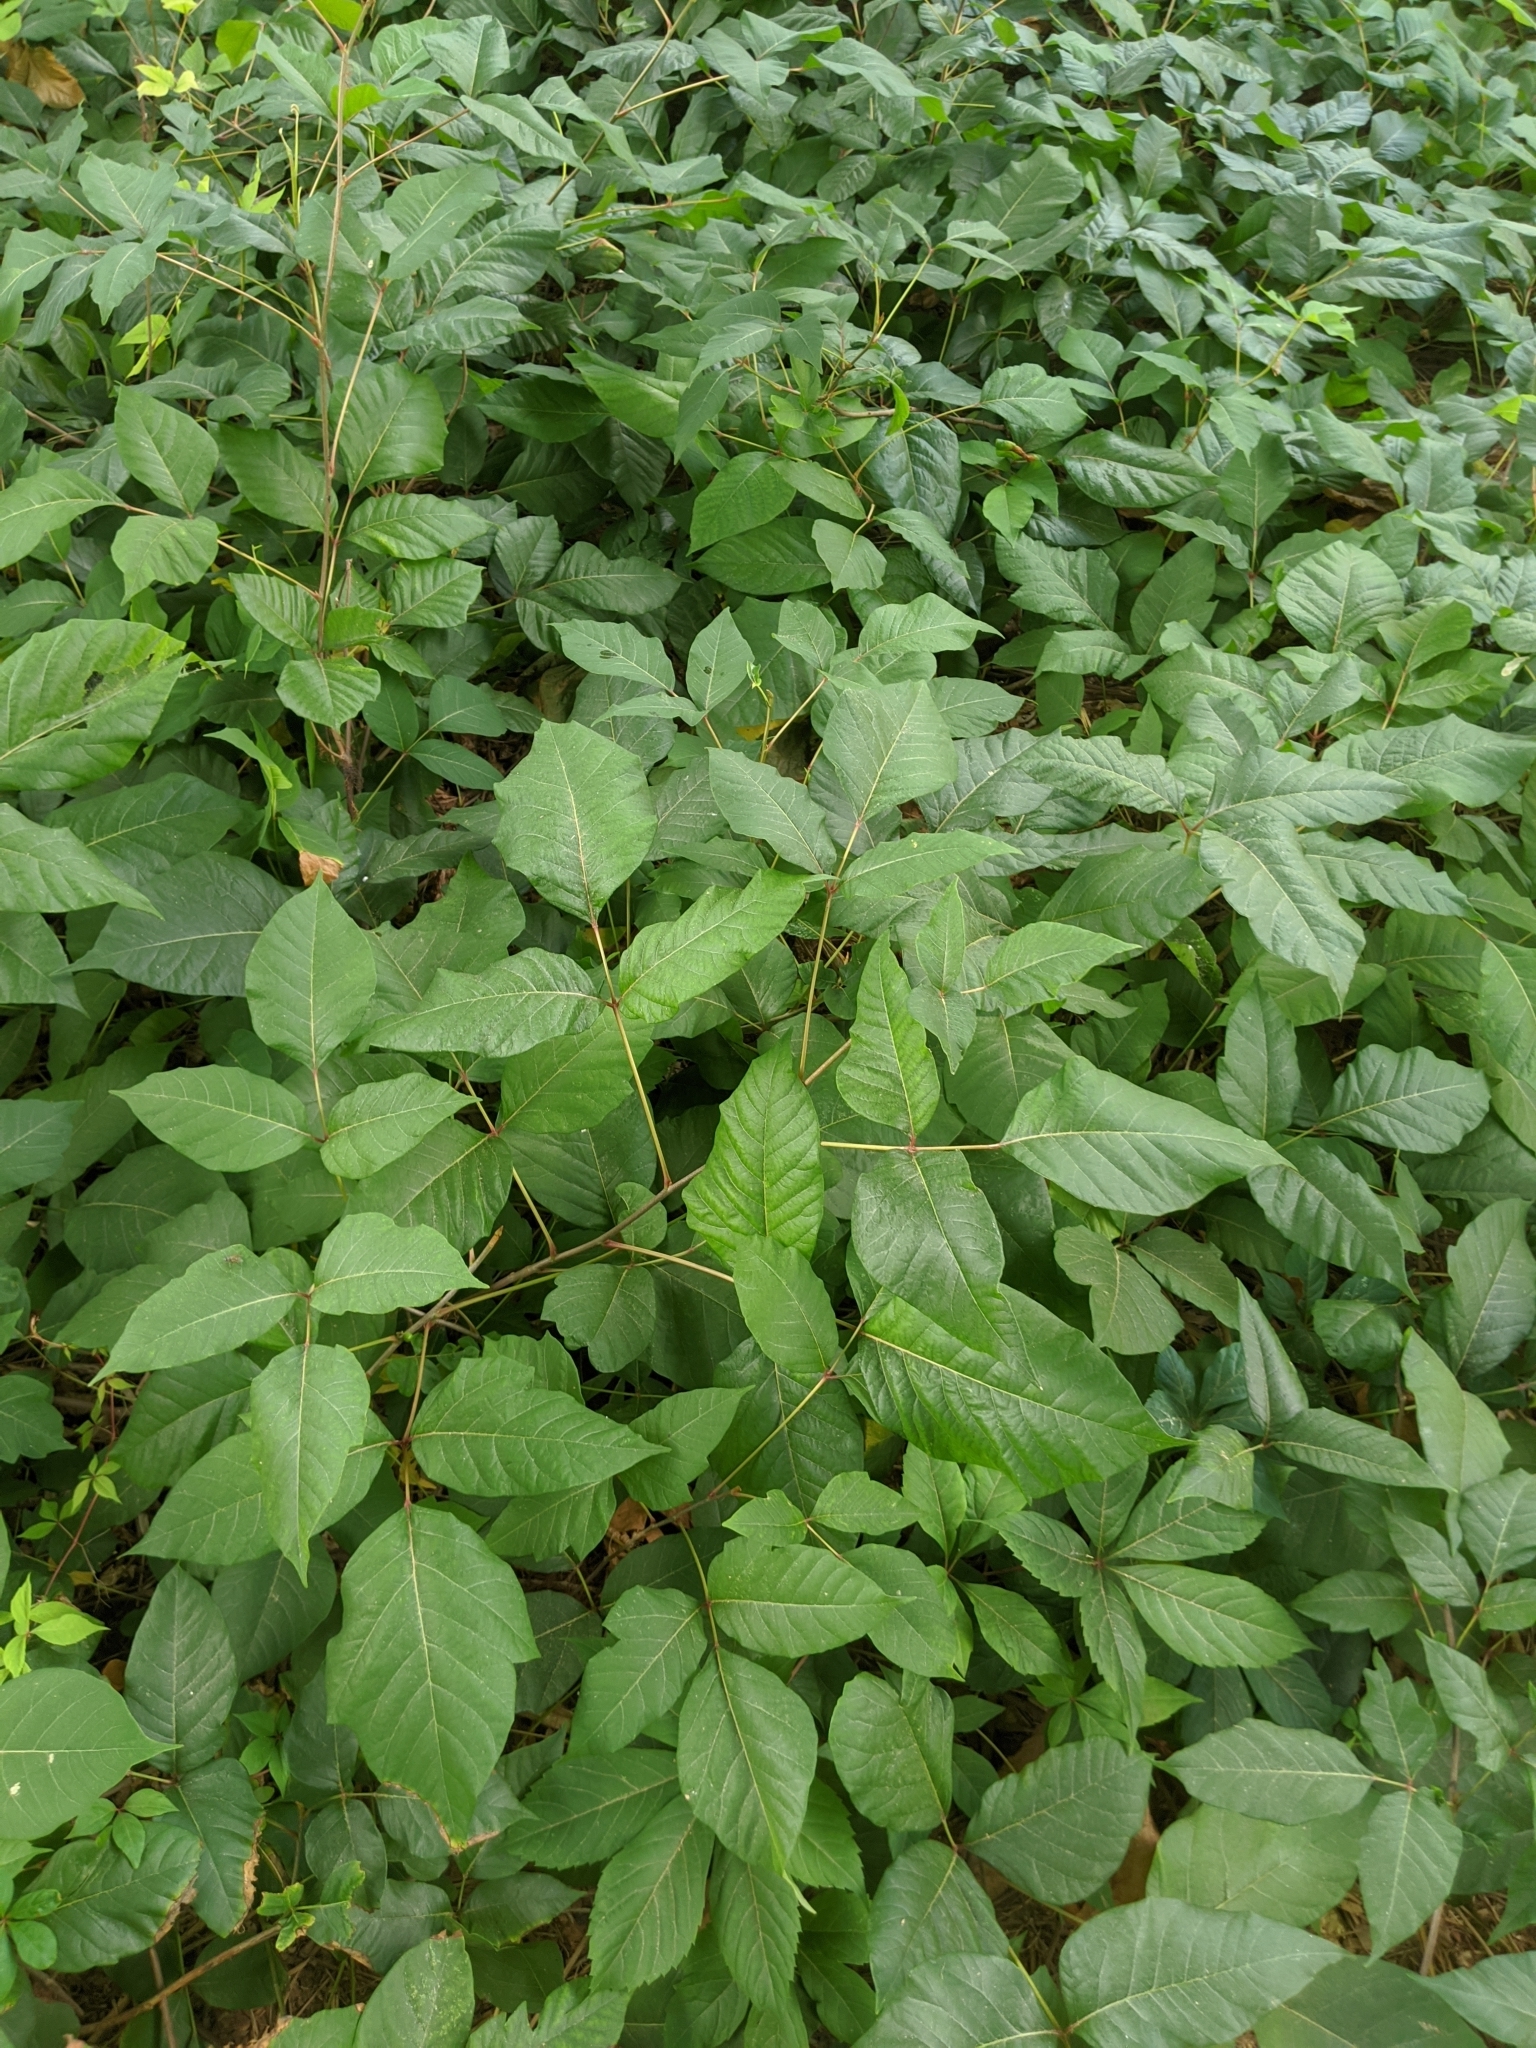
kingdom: Plantae
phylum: Tracheophyta
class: Magnoliopsida
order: Sapindales
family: Anacardiaceae
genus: Toxicodendron
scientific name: Toxicodendron radicans
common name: Poison ivy
